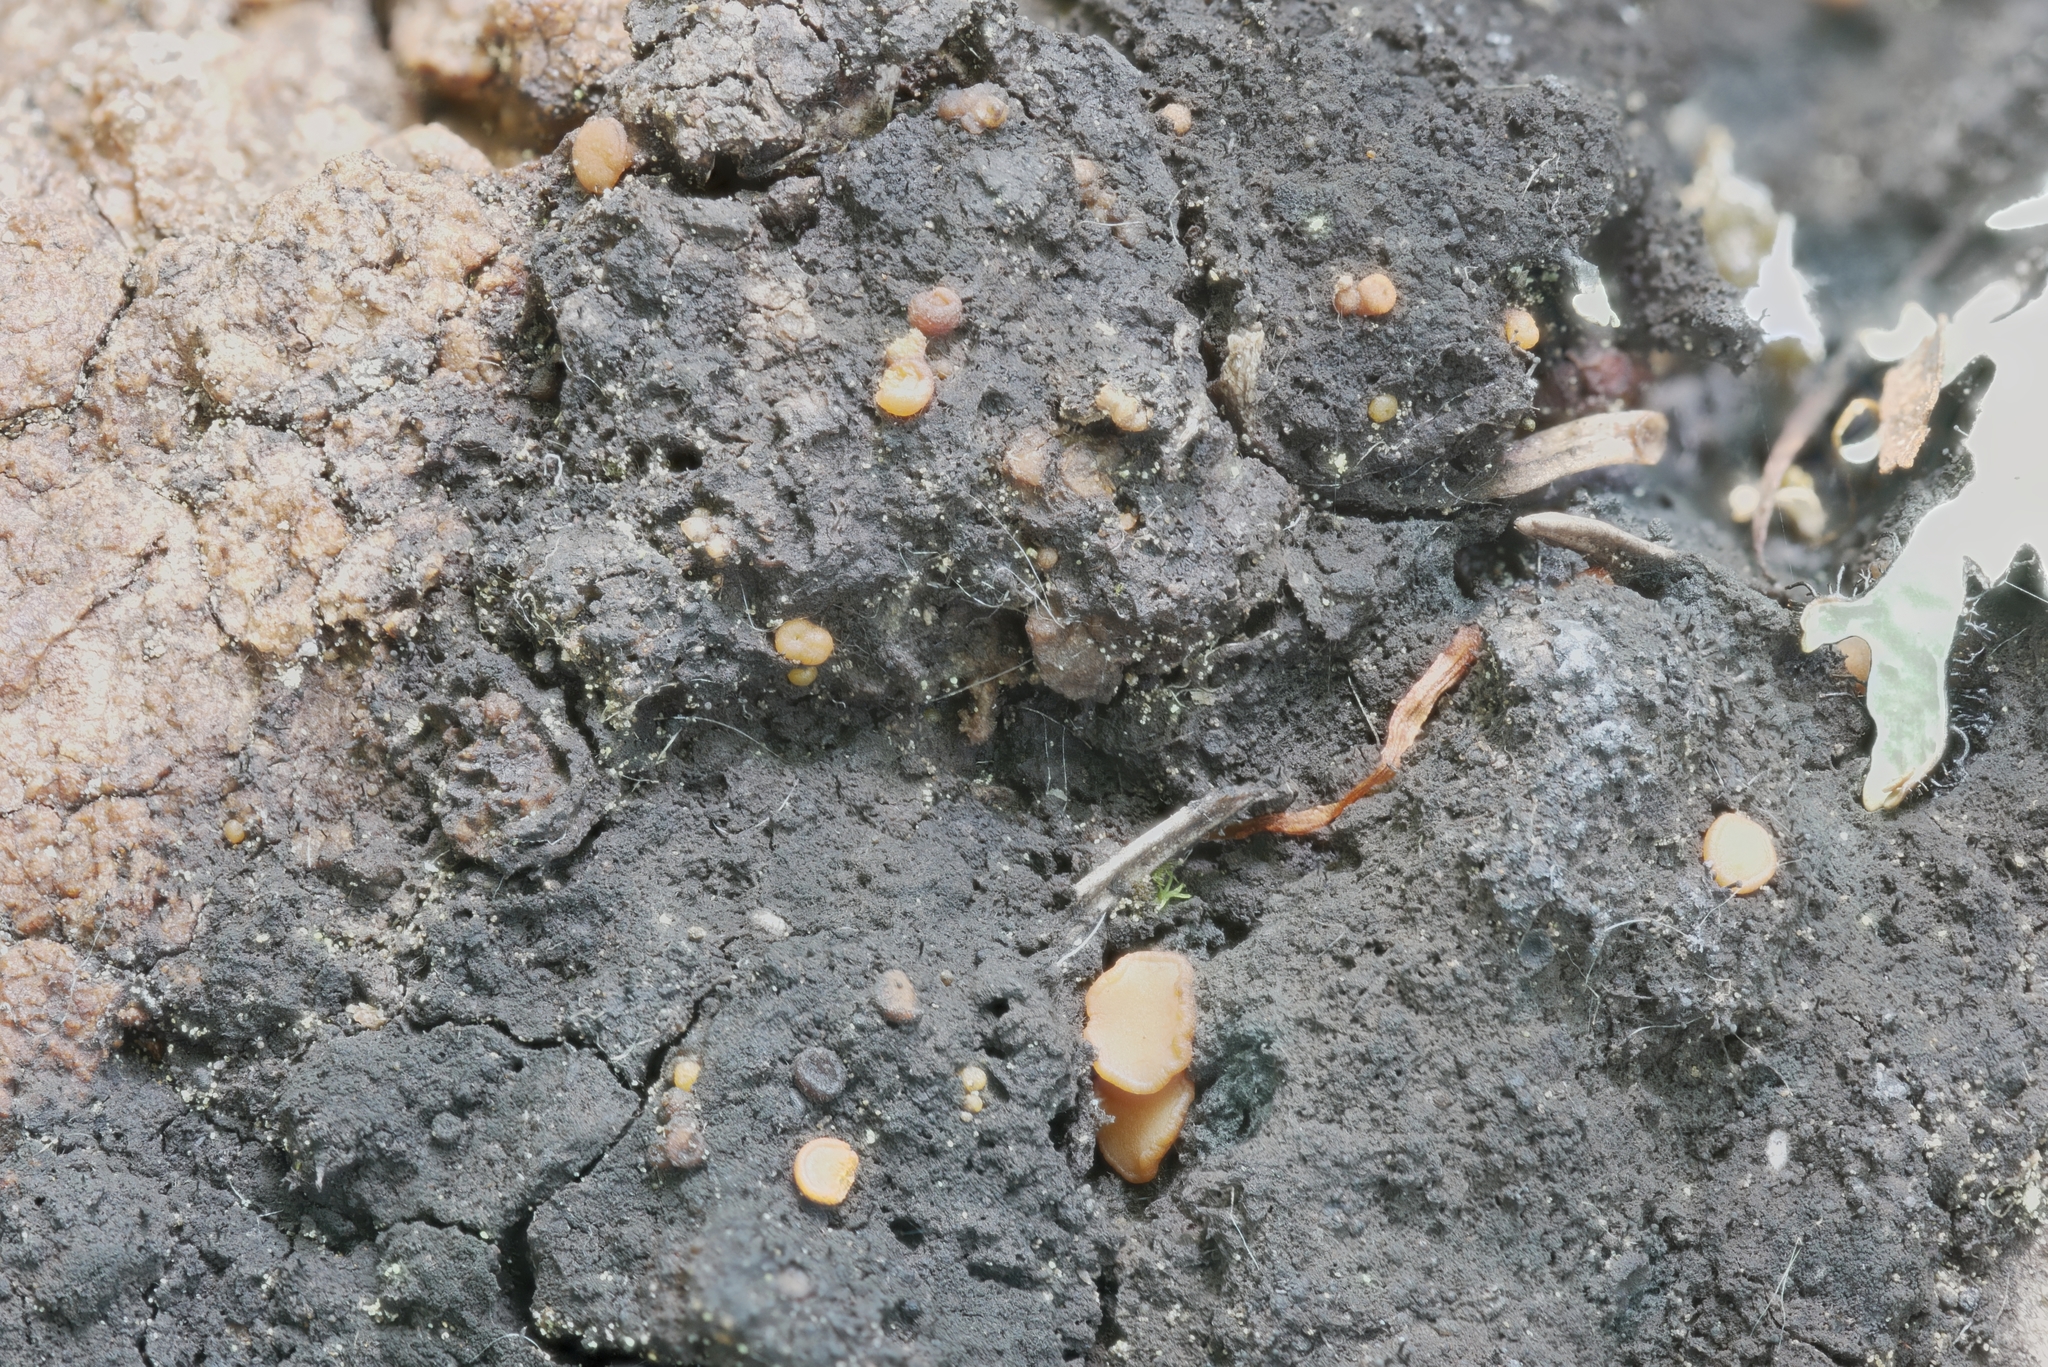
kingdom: Fungi
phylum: Ascomycota
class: Sareomycetes
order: Sareales
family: Sareaceae
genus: Sarea
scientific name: Sarea resinae
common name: Sarea lichen
